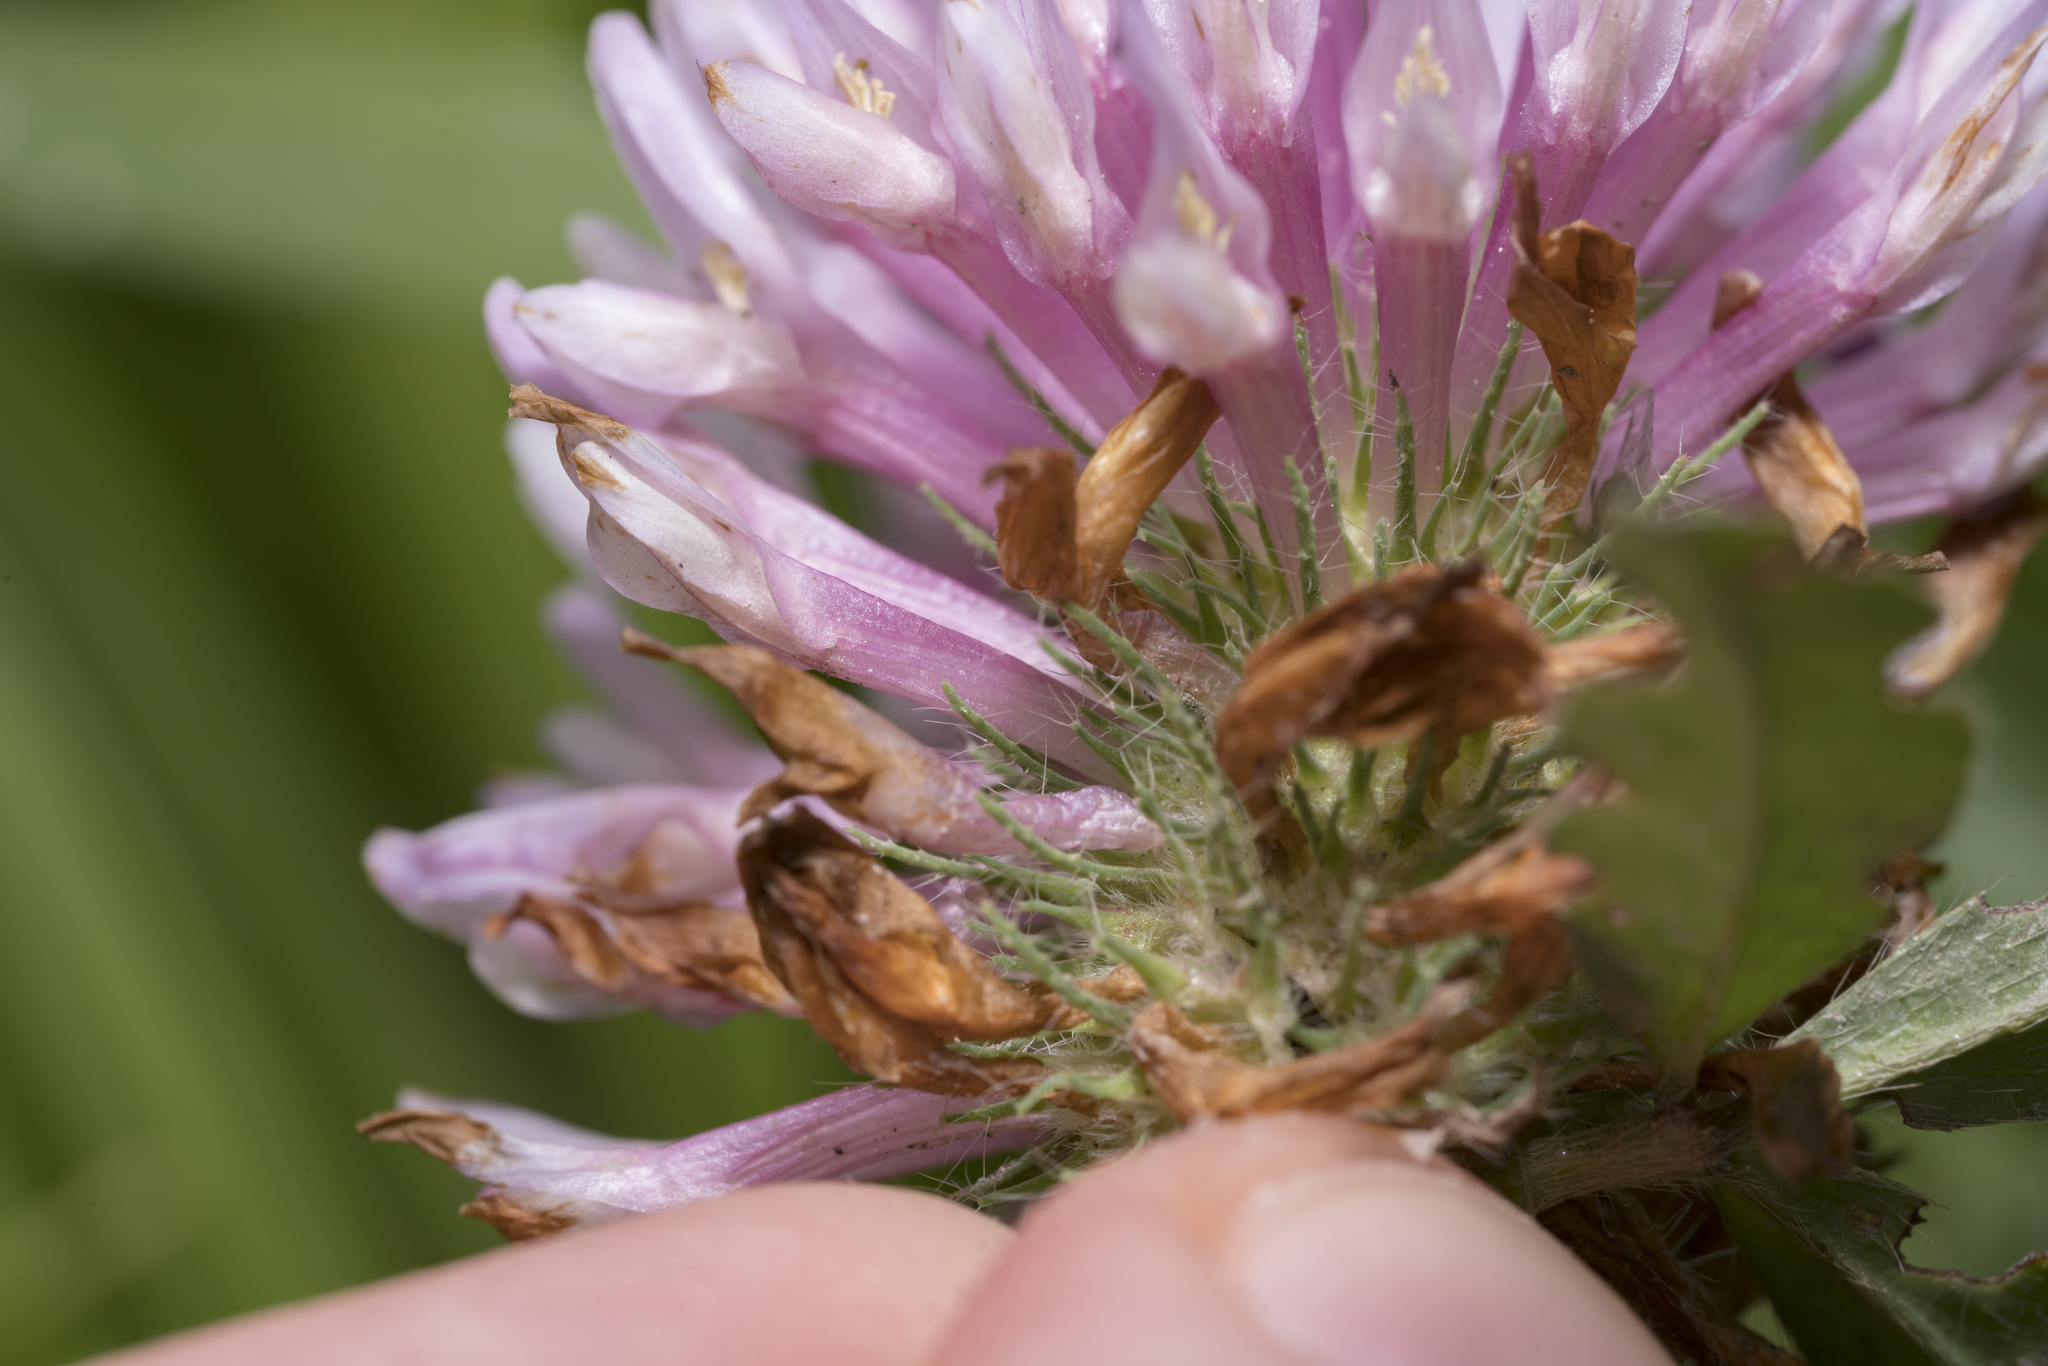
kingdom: Plantae
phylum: Tracheophyta
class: Magnoliopsida
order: Fabales
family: Fabaceae
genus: Trifolium
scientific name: Trifolium pratense
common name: Red clover
